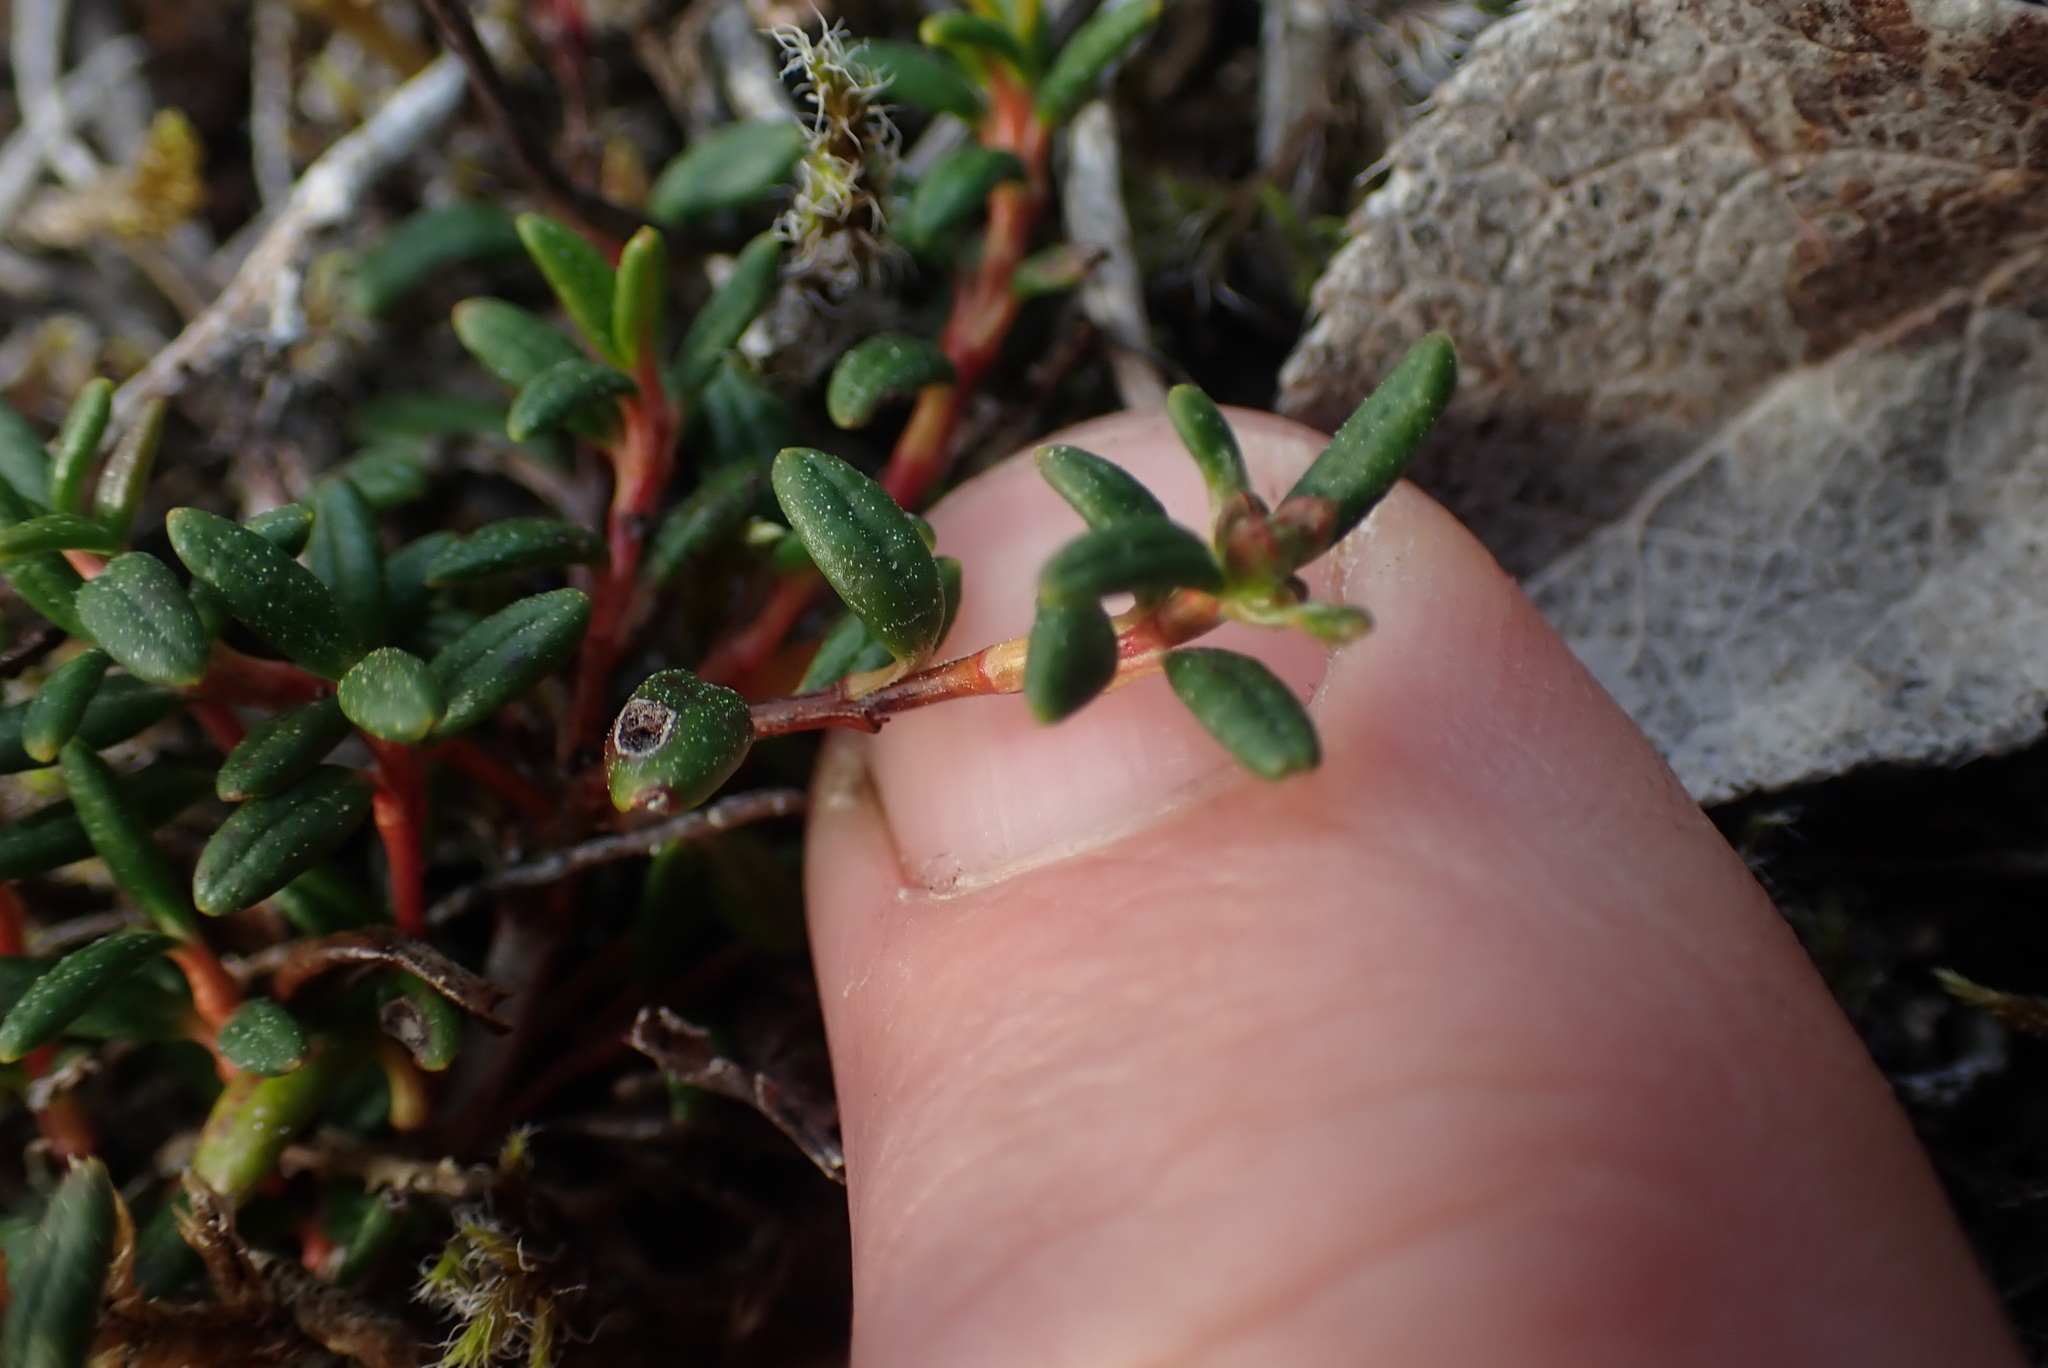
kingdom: Plantae
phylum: Tracheophyta
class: Magnoliopsida
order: Ericales
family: Ericaceae
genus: Kalmia
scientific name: Kalmia procumbens
